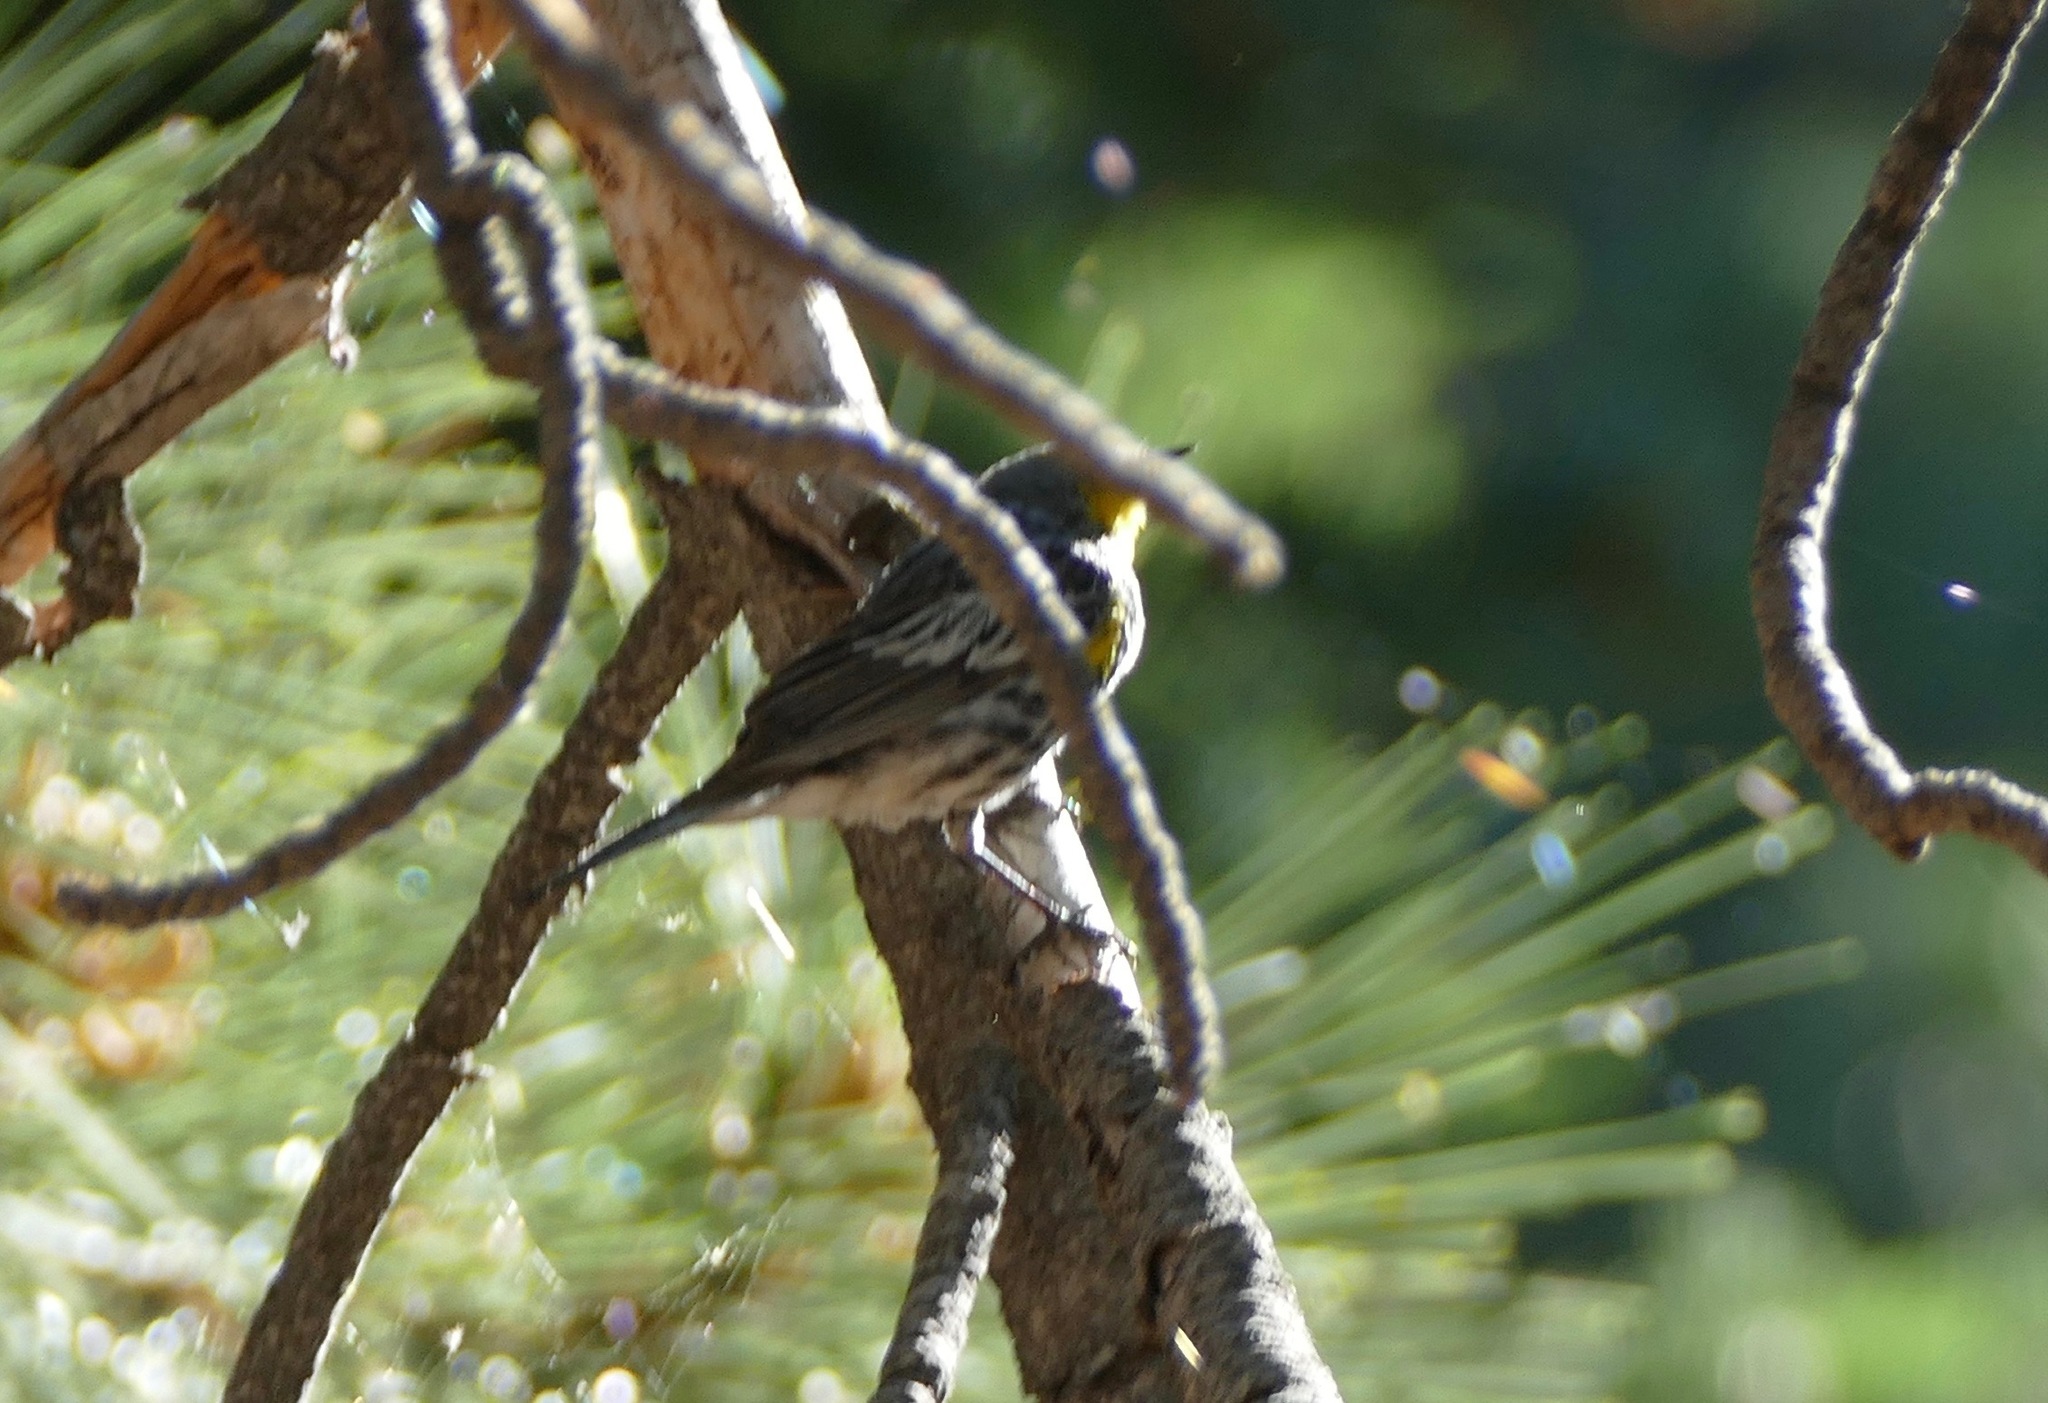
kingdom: Animalia
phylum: Chordata
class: Aves
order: Passeriformes
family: Parulidae
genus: Setophaga
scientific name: Setophaga coronata
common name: Myrtle warbler
